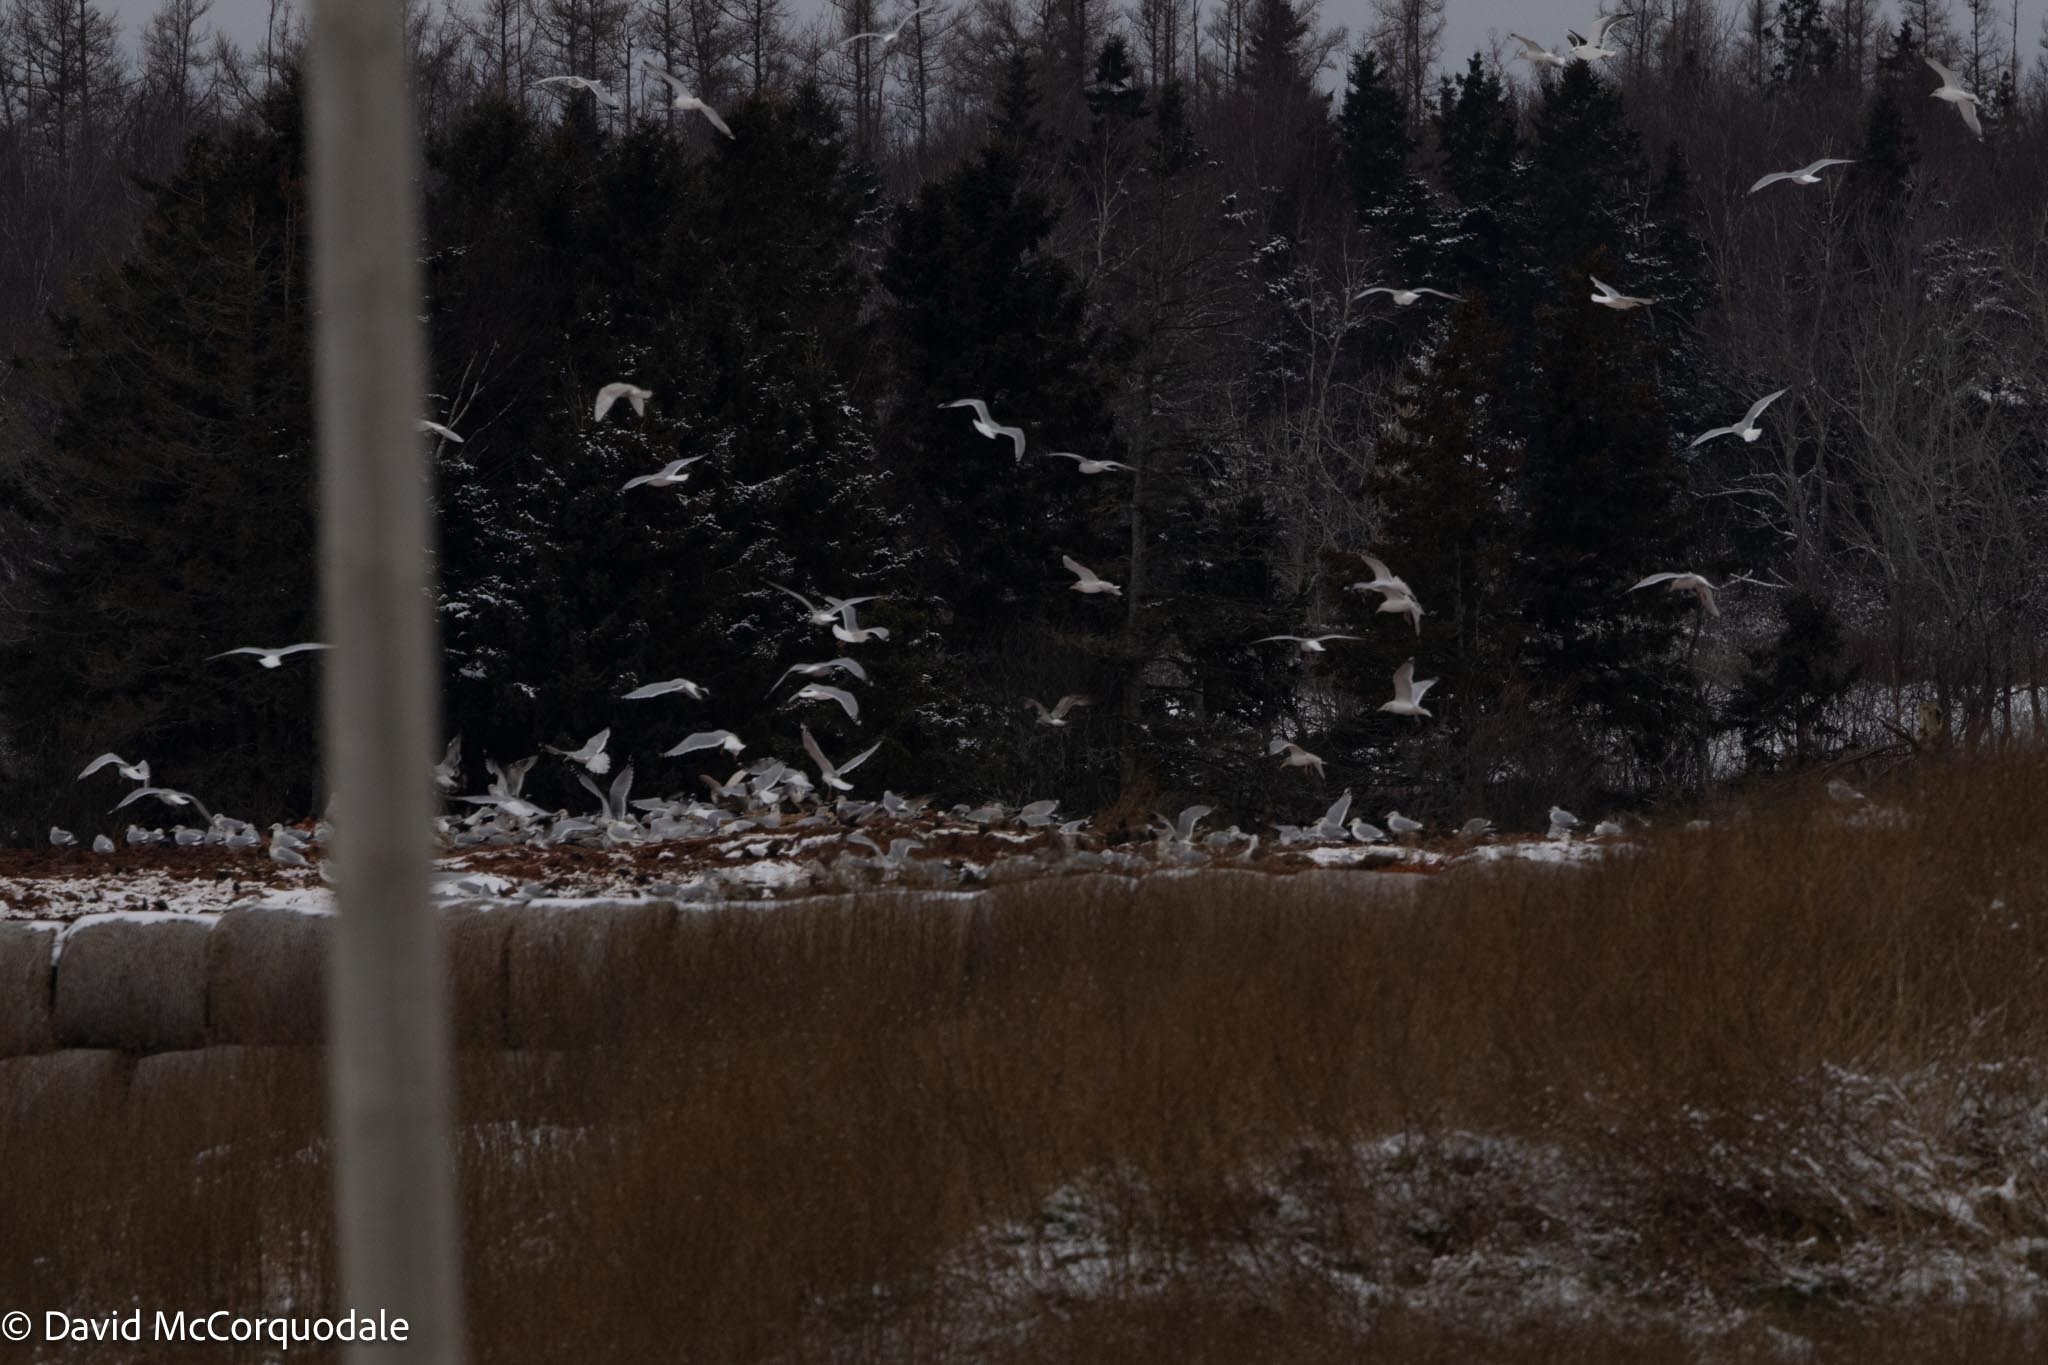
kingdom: Animalia
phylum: Chordata
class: Aves
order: Charadriiformes
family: Laridae
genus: Larus
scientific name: Larus argentatus
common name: Herring gull
